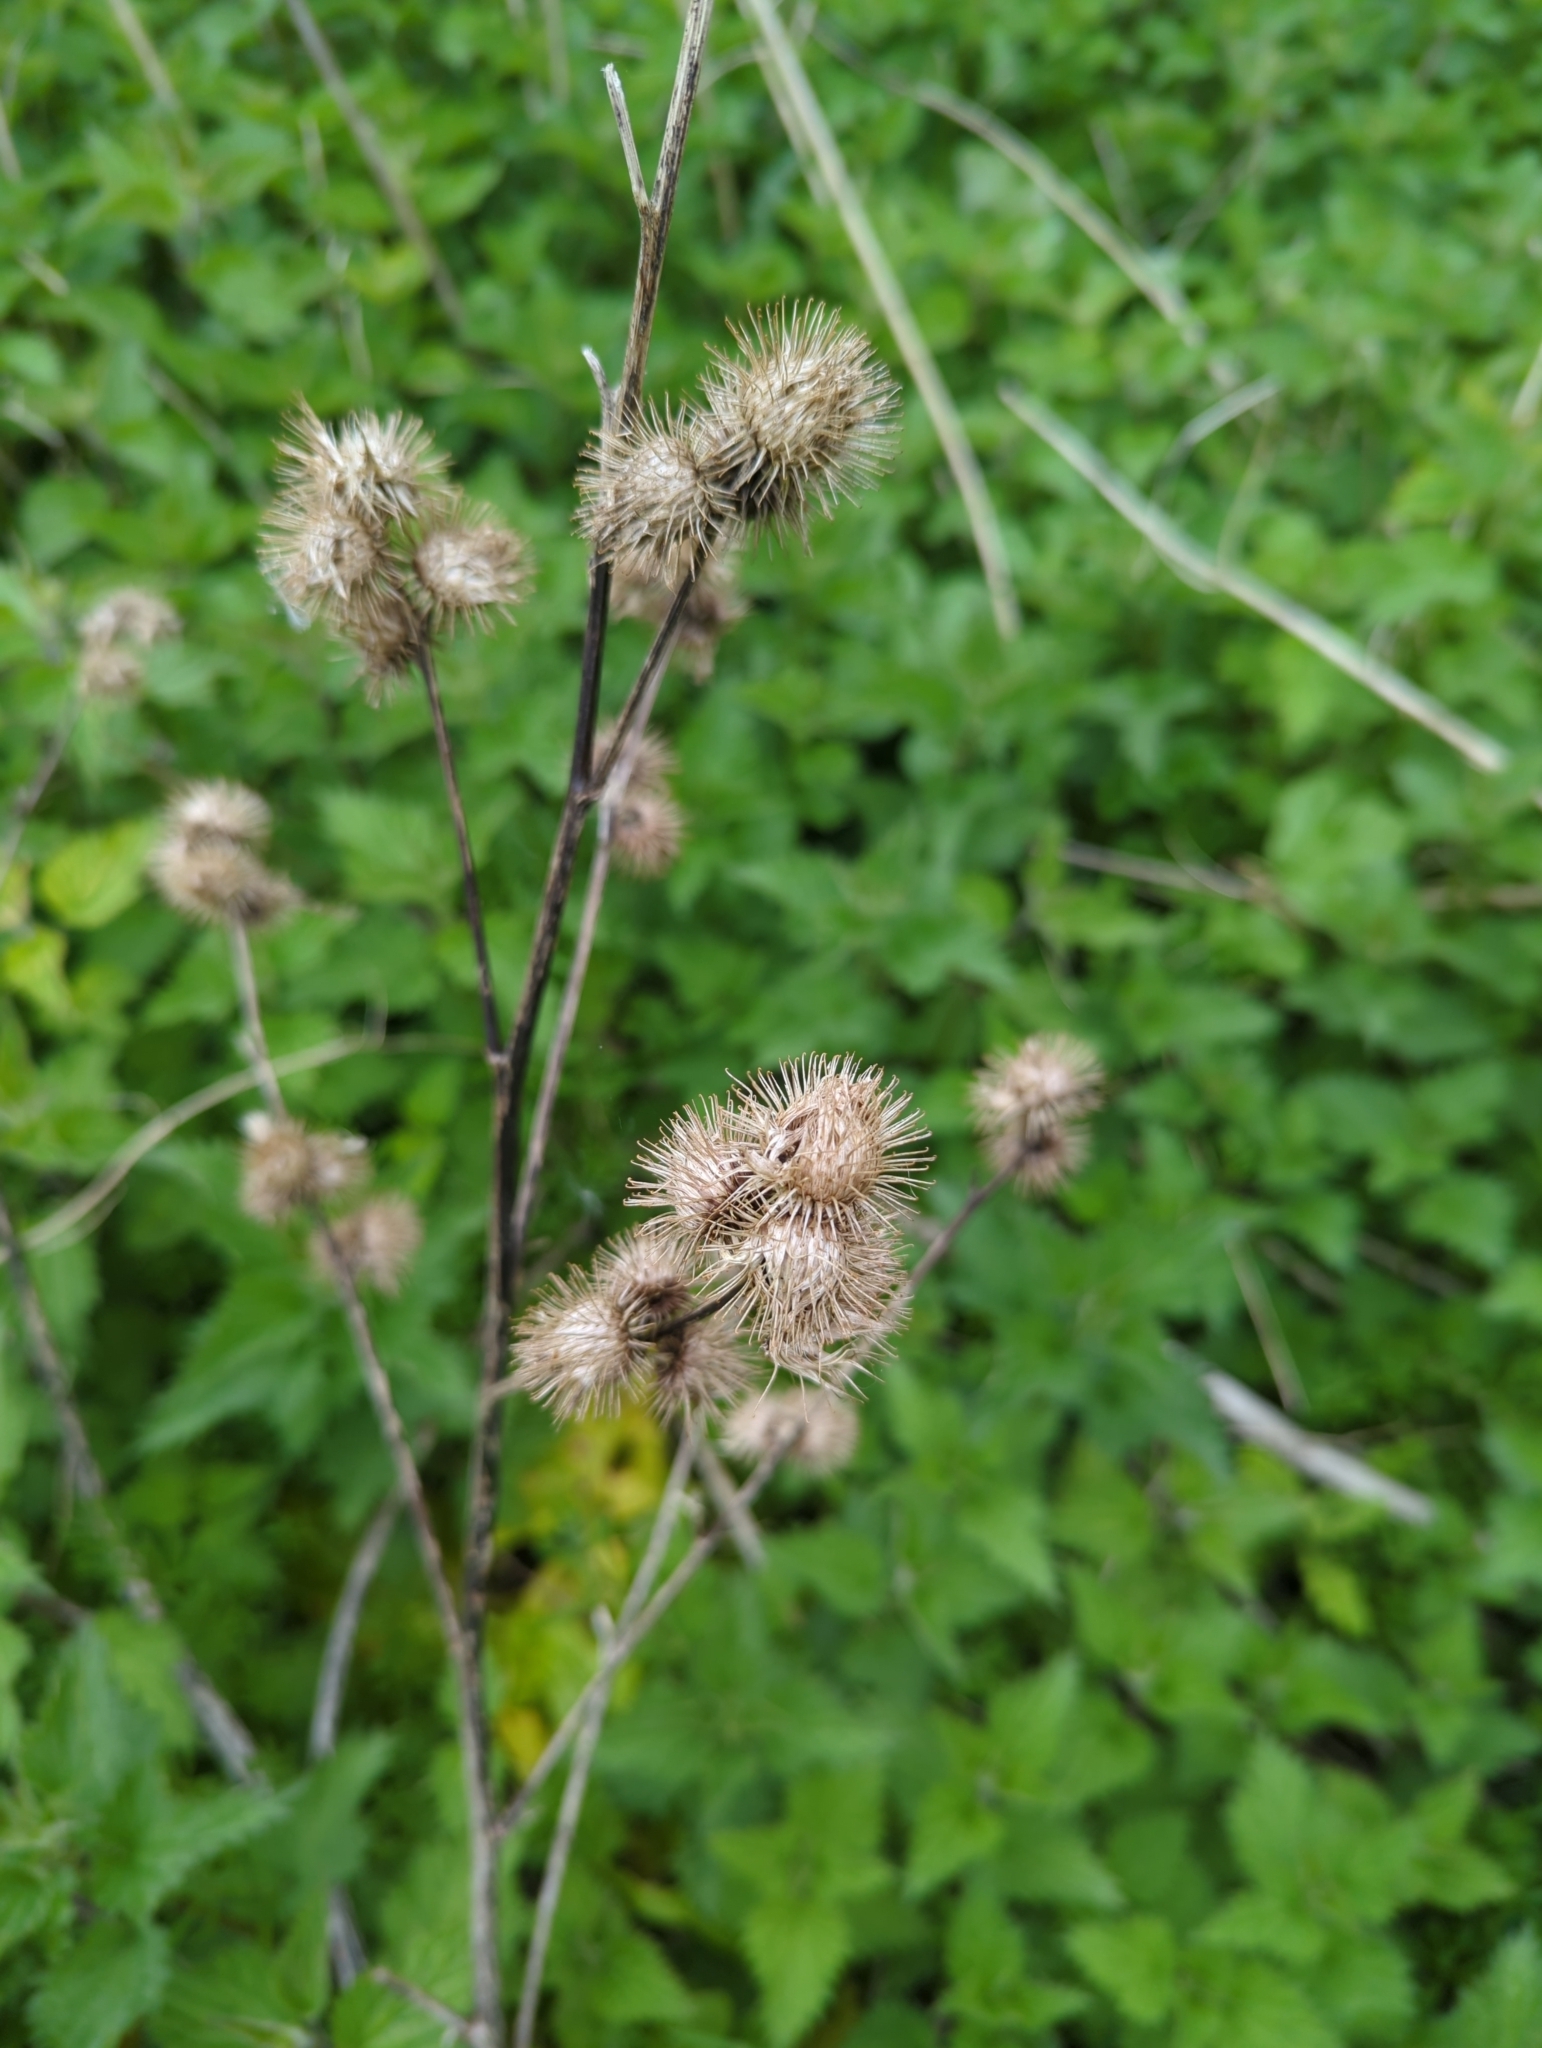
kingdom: Plantae
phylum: Tracheophyta
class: Magnoliopsida
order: Asterales
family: Asteraceae
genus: Arctium
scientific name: Arctium minus
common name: Lesser burdock
